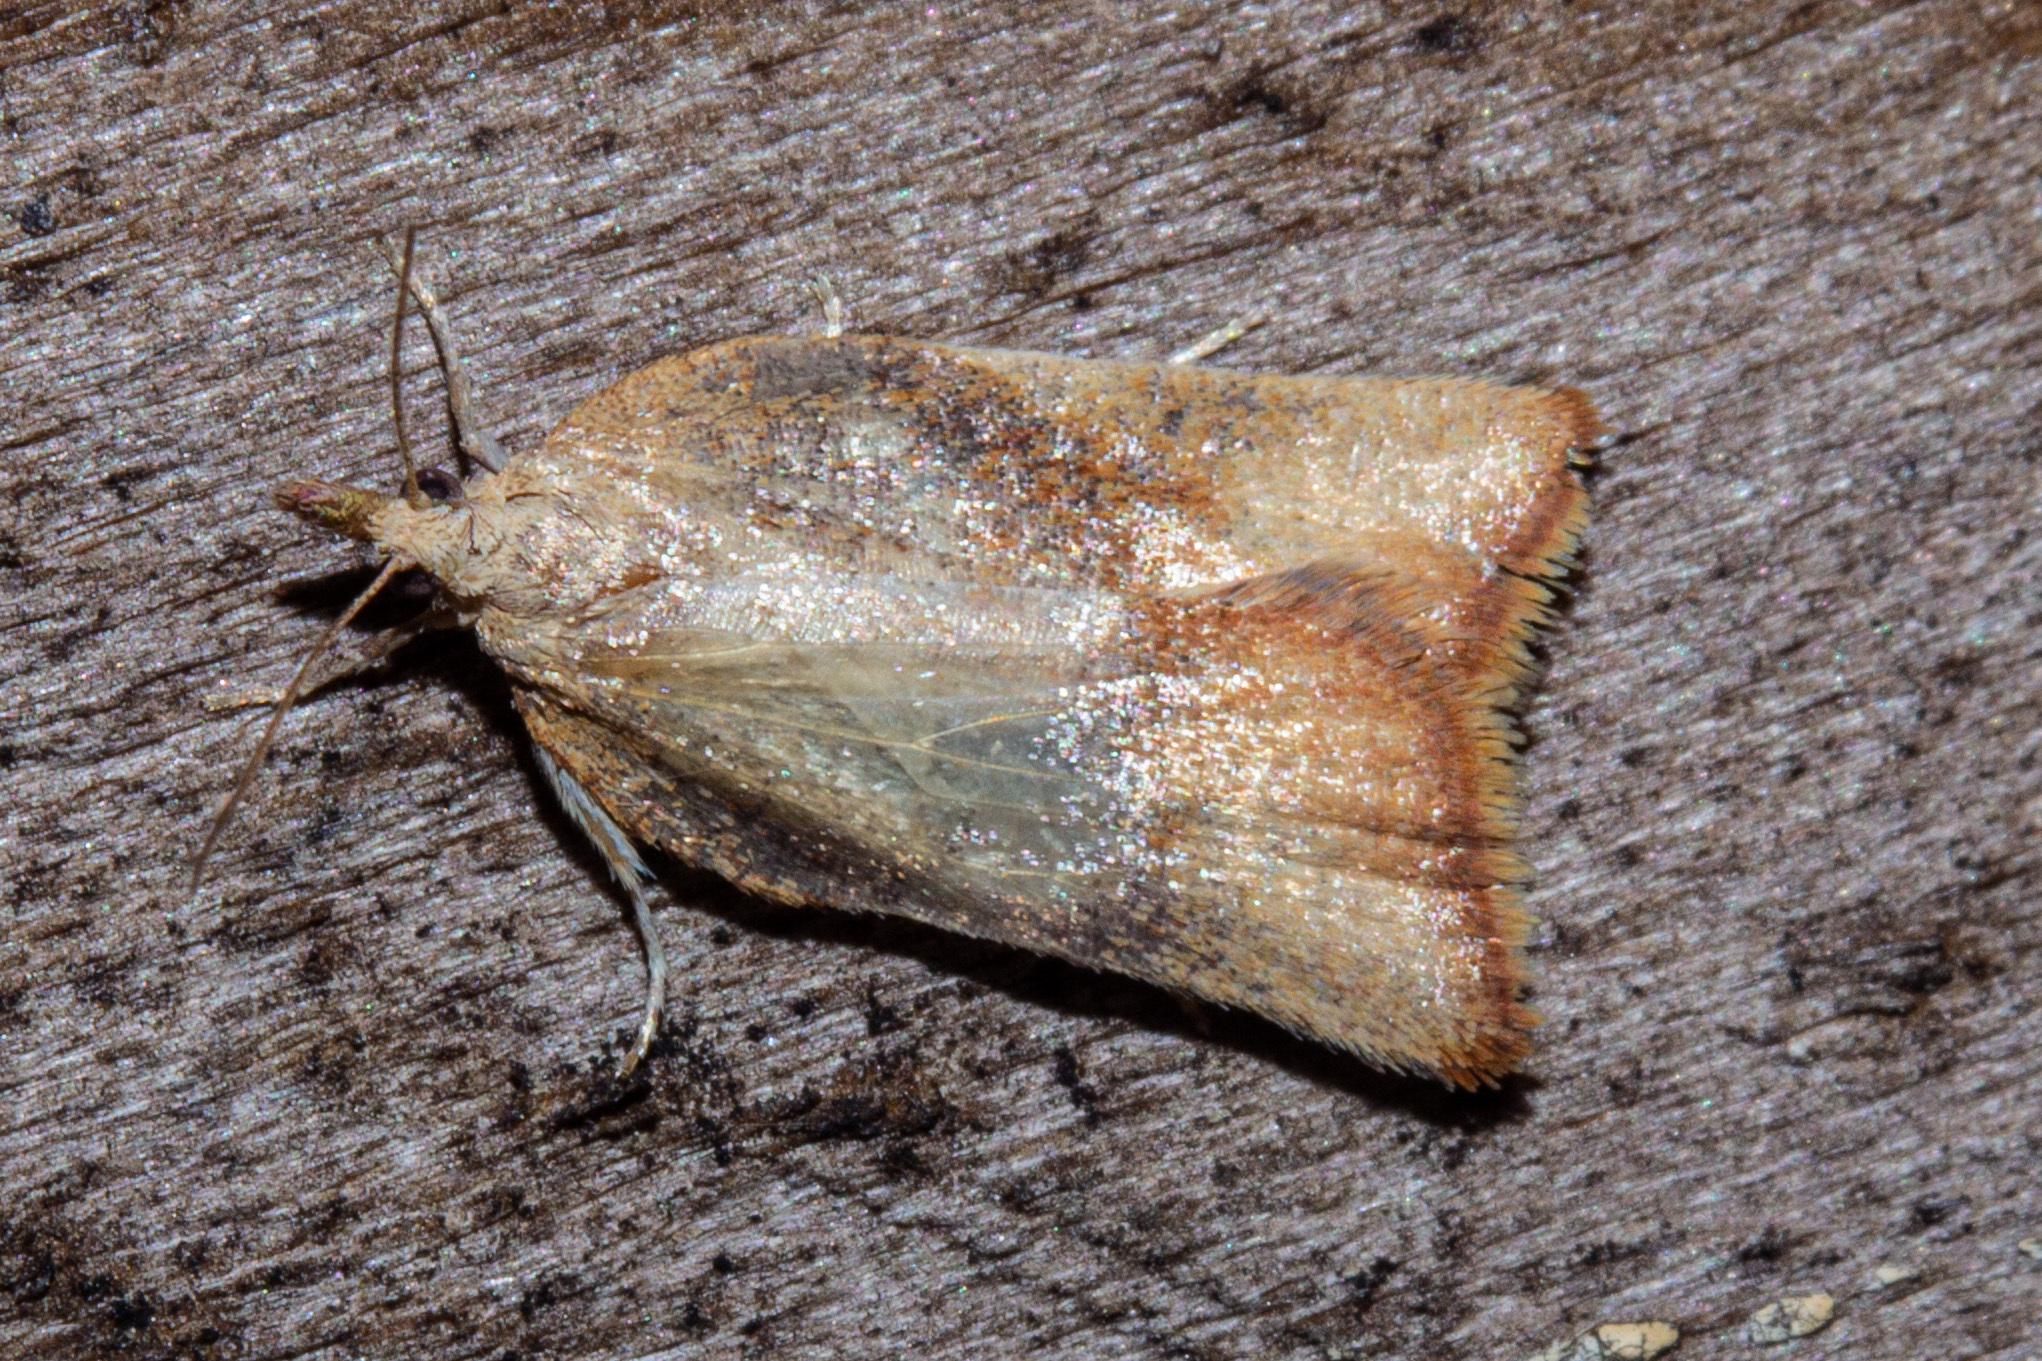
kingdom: Animalia
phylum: Arthropoda
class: Insecta
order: Lepidoptera
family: Tortricidae
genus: Catamacta
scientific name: Catamacta gavisana
